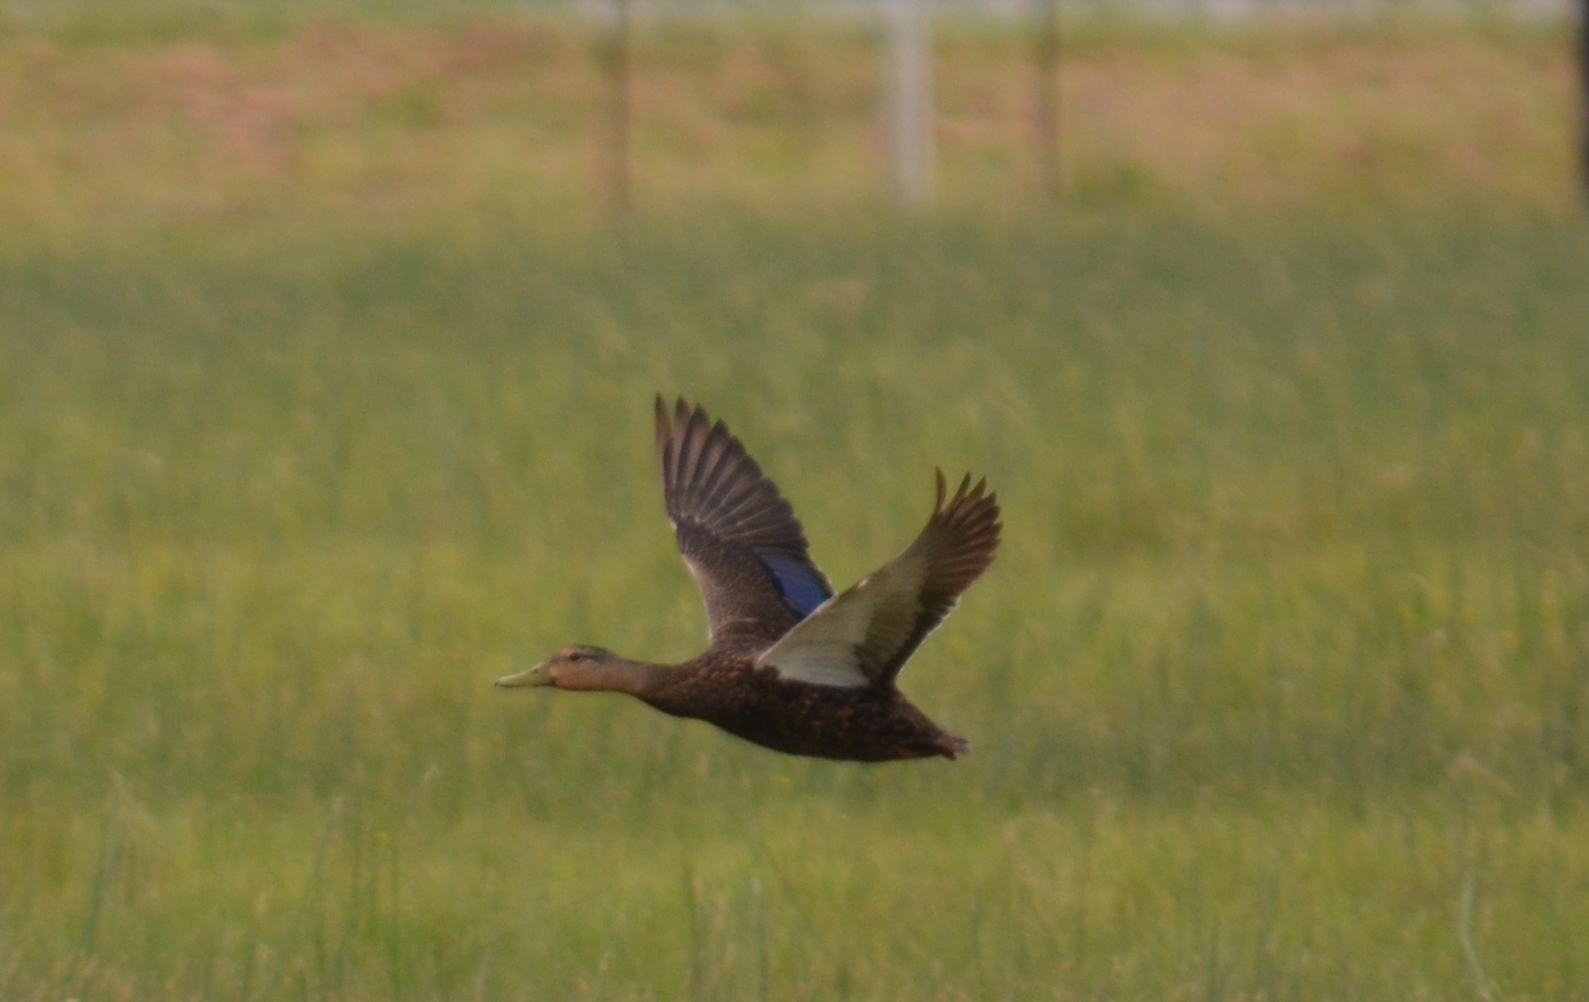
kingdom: Animalia
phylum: Chordata
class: Aves
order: Anseriformes
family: Anatidae
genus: Anas
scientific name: Anas fulvigula
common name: Mottled duck
